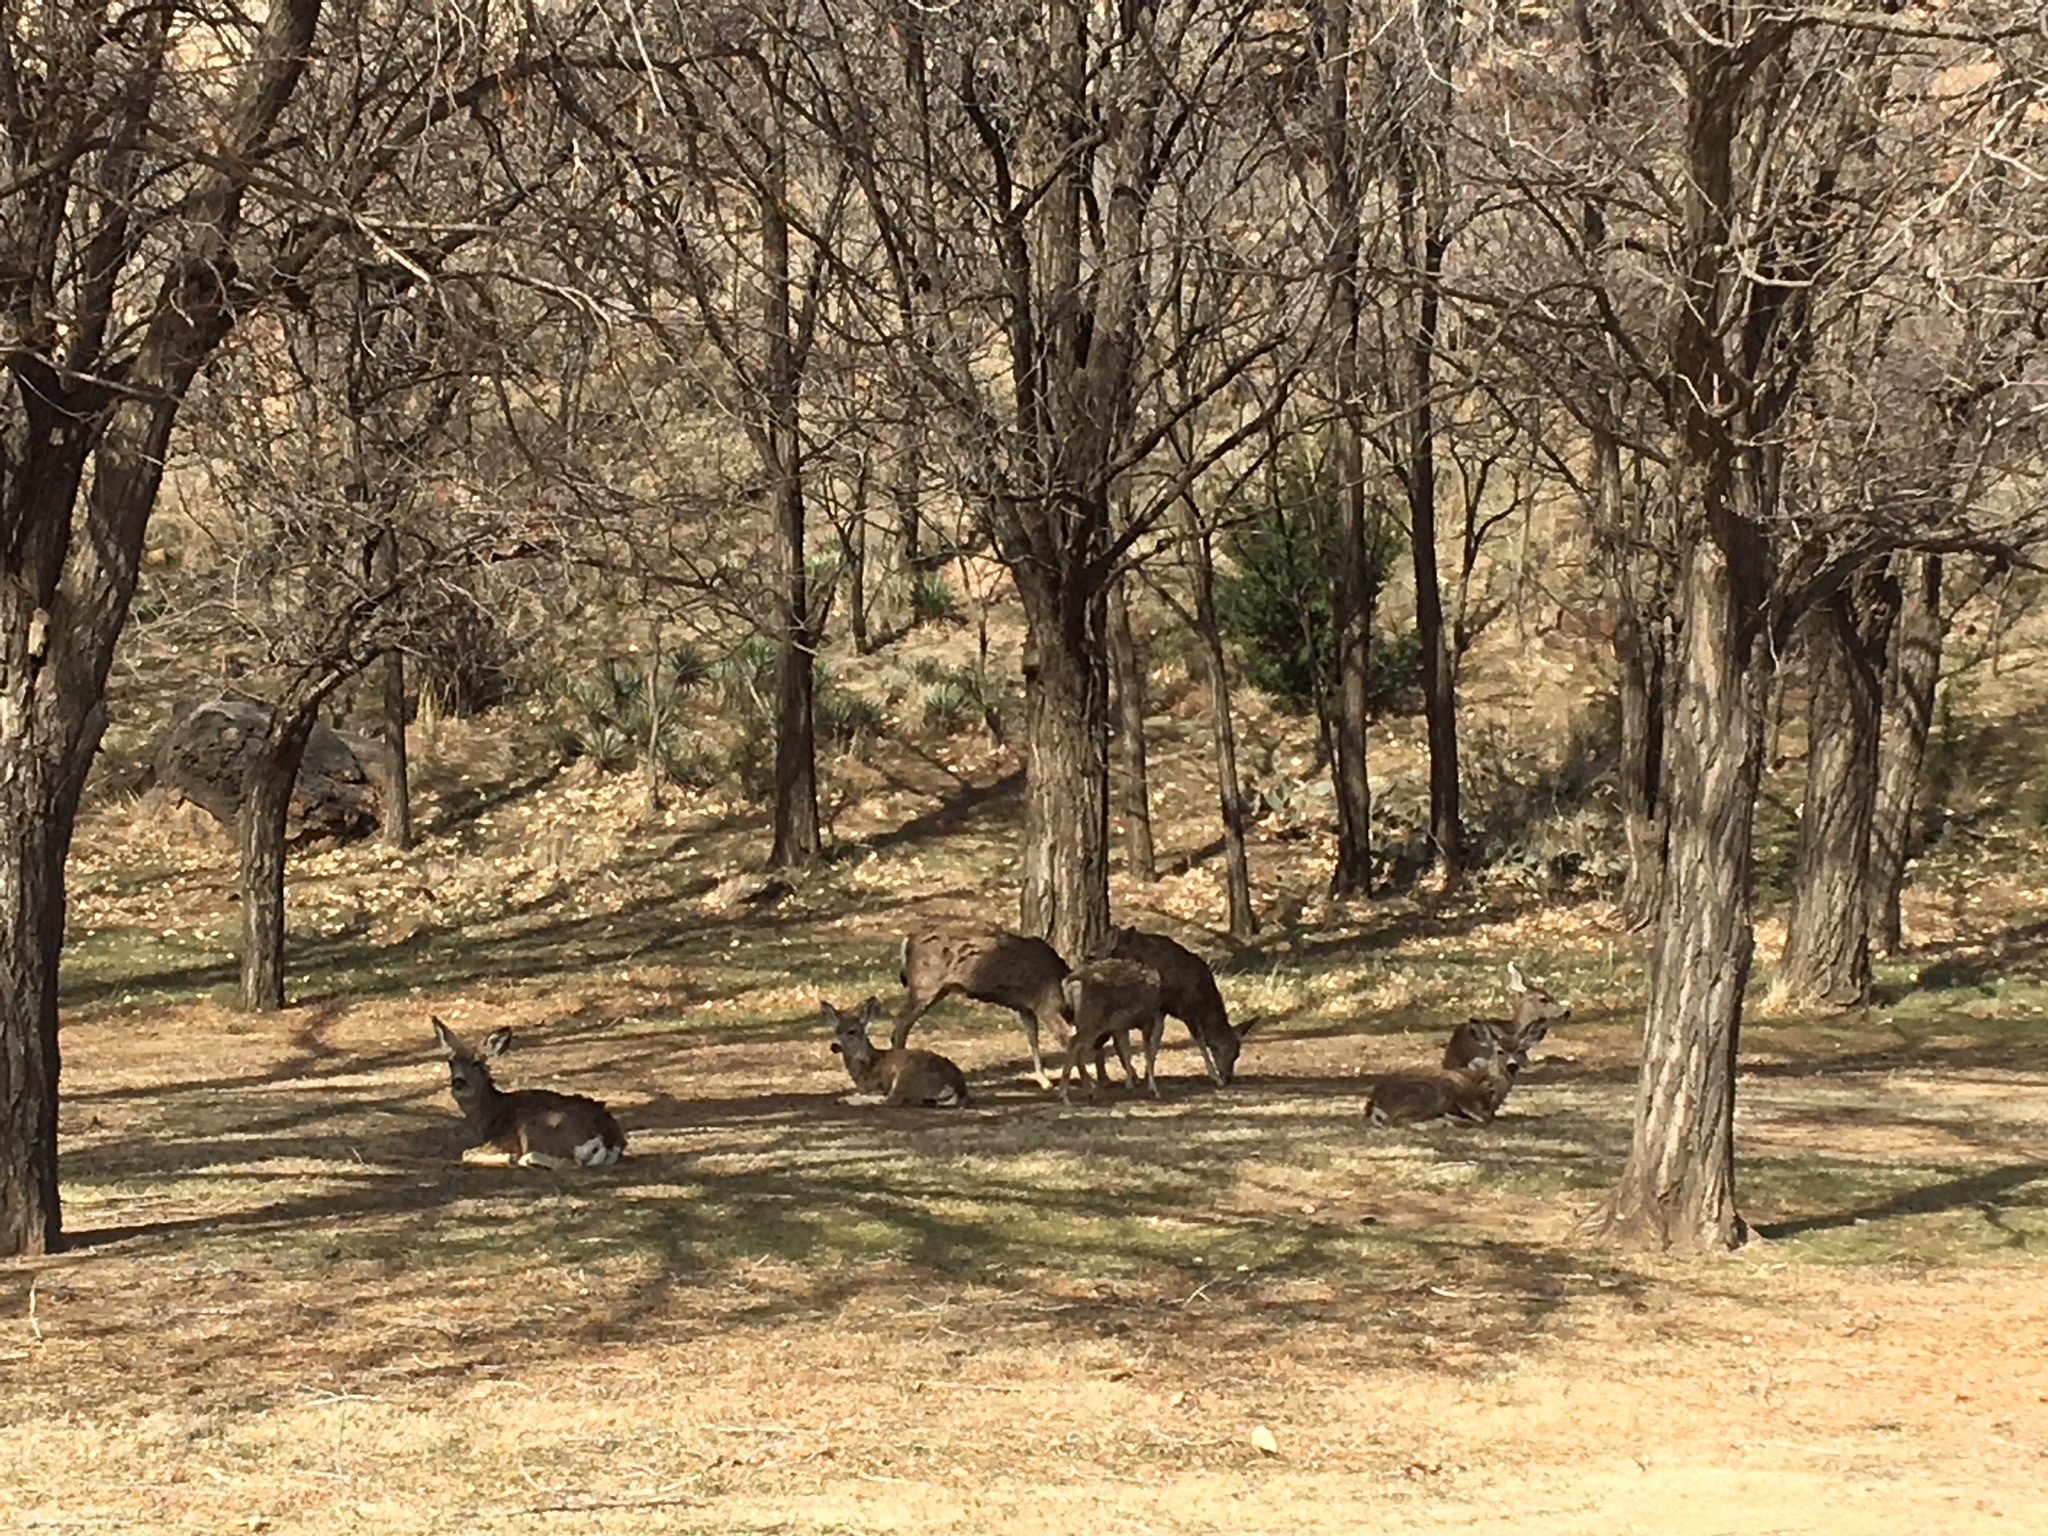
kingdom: Animalia
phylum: Chordata
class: Mammalia
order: Artiodactyla
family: Cervidae
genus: Odocoileus
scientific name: Odocoileus hemionus
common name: Mule deer
